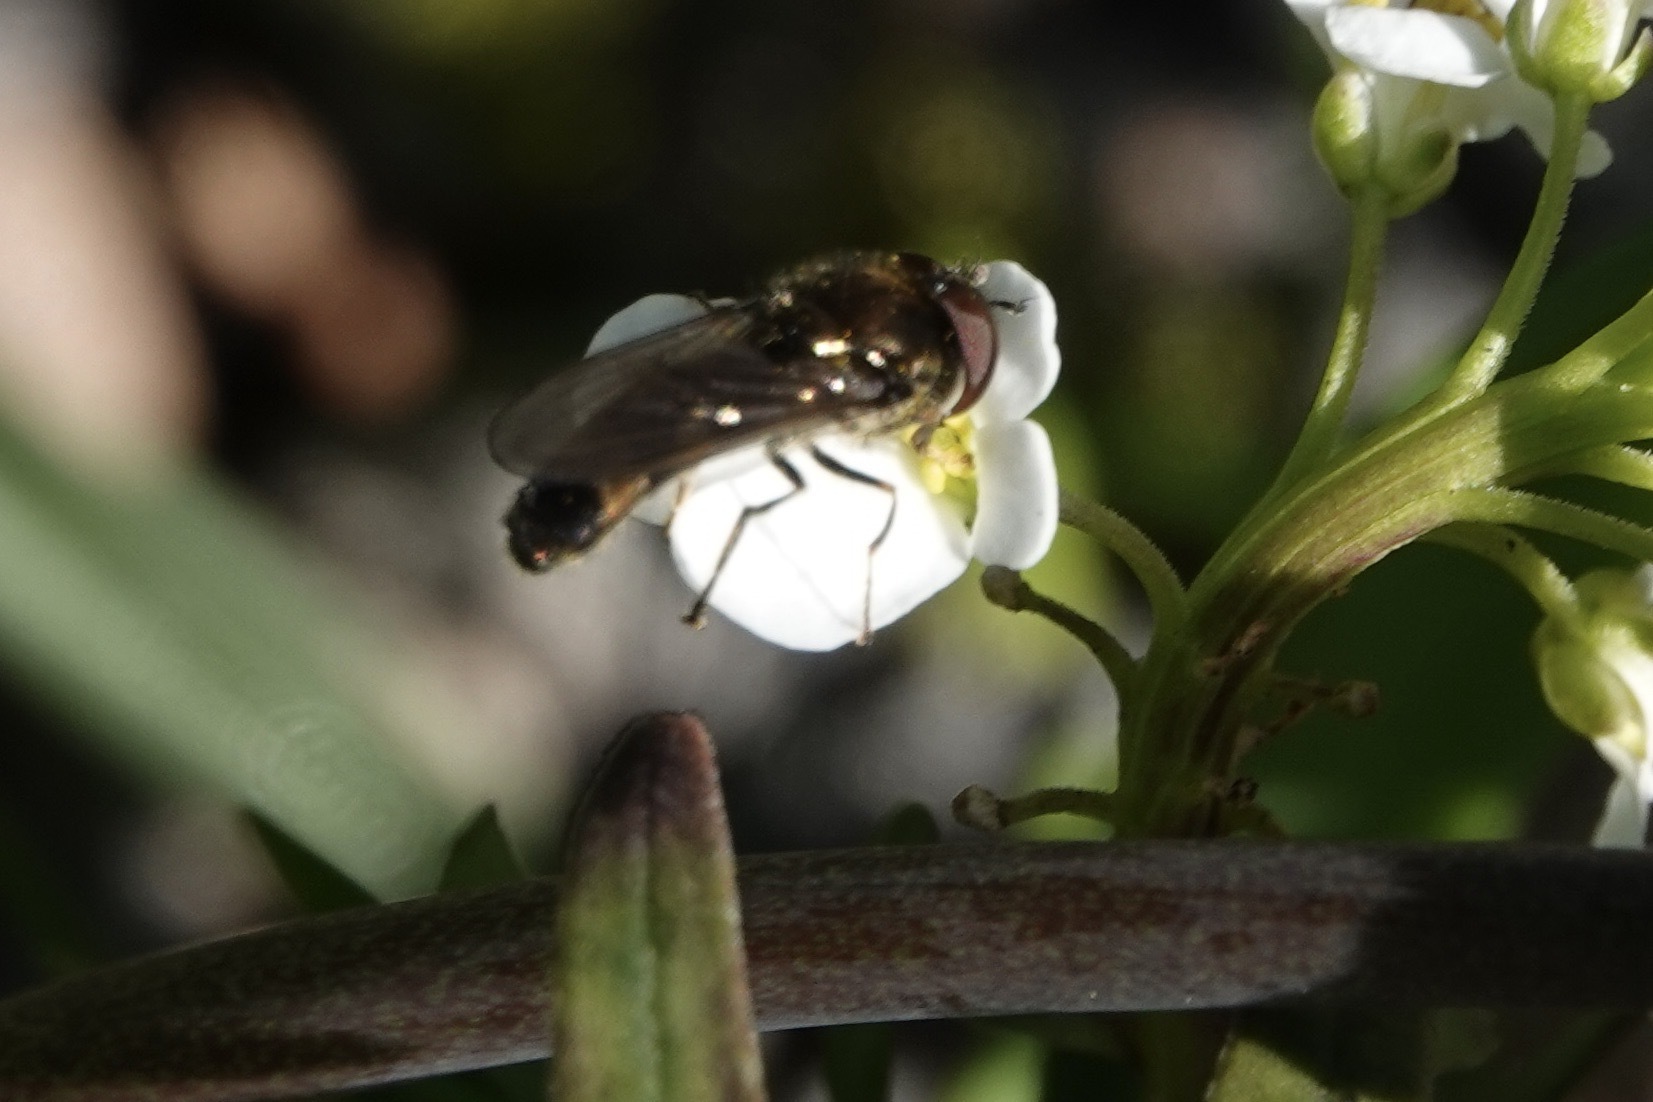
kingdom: Animalia
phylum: Arthropoda
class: Insecta
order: Diptera
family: Syrphidae
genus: Platycheirus
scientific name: Platycheirus scutatus
